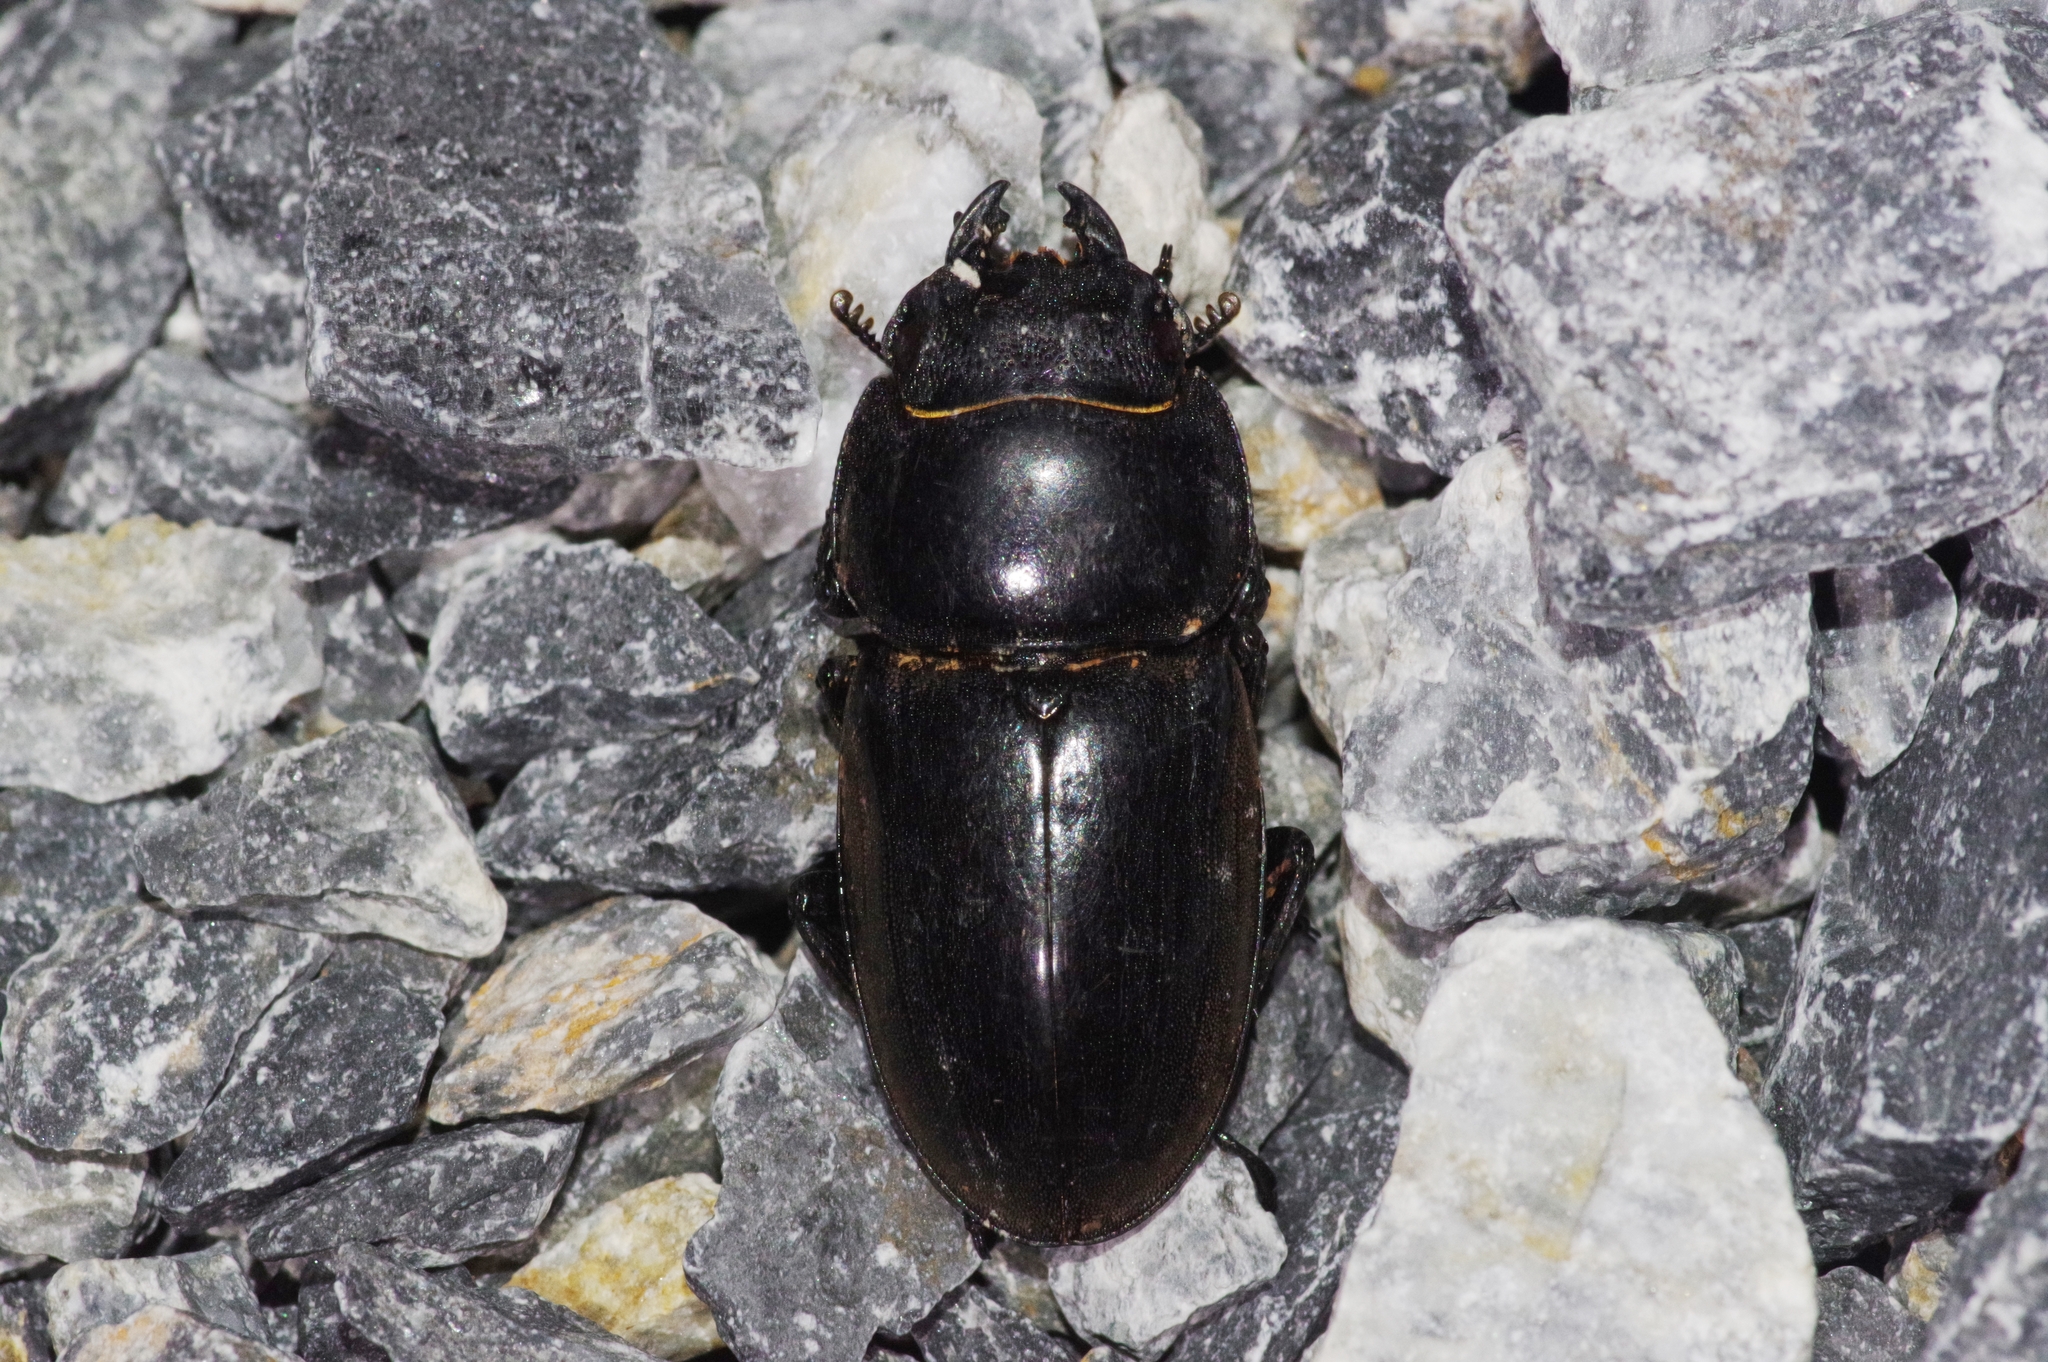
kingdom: Animalia
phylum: Arthropoda
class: Insecta
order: Coleoptera
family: Lucanidae
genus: Serrognathus
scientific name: Serrognathus titanus
